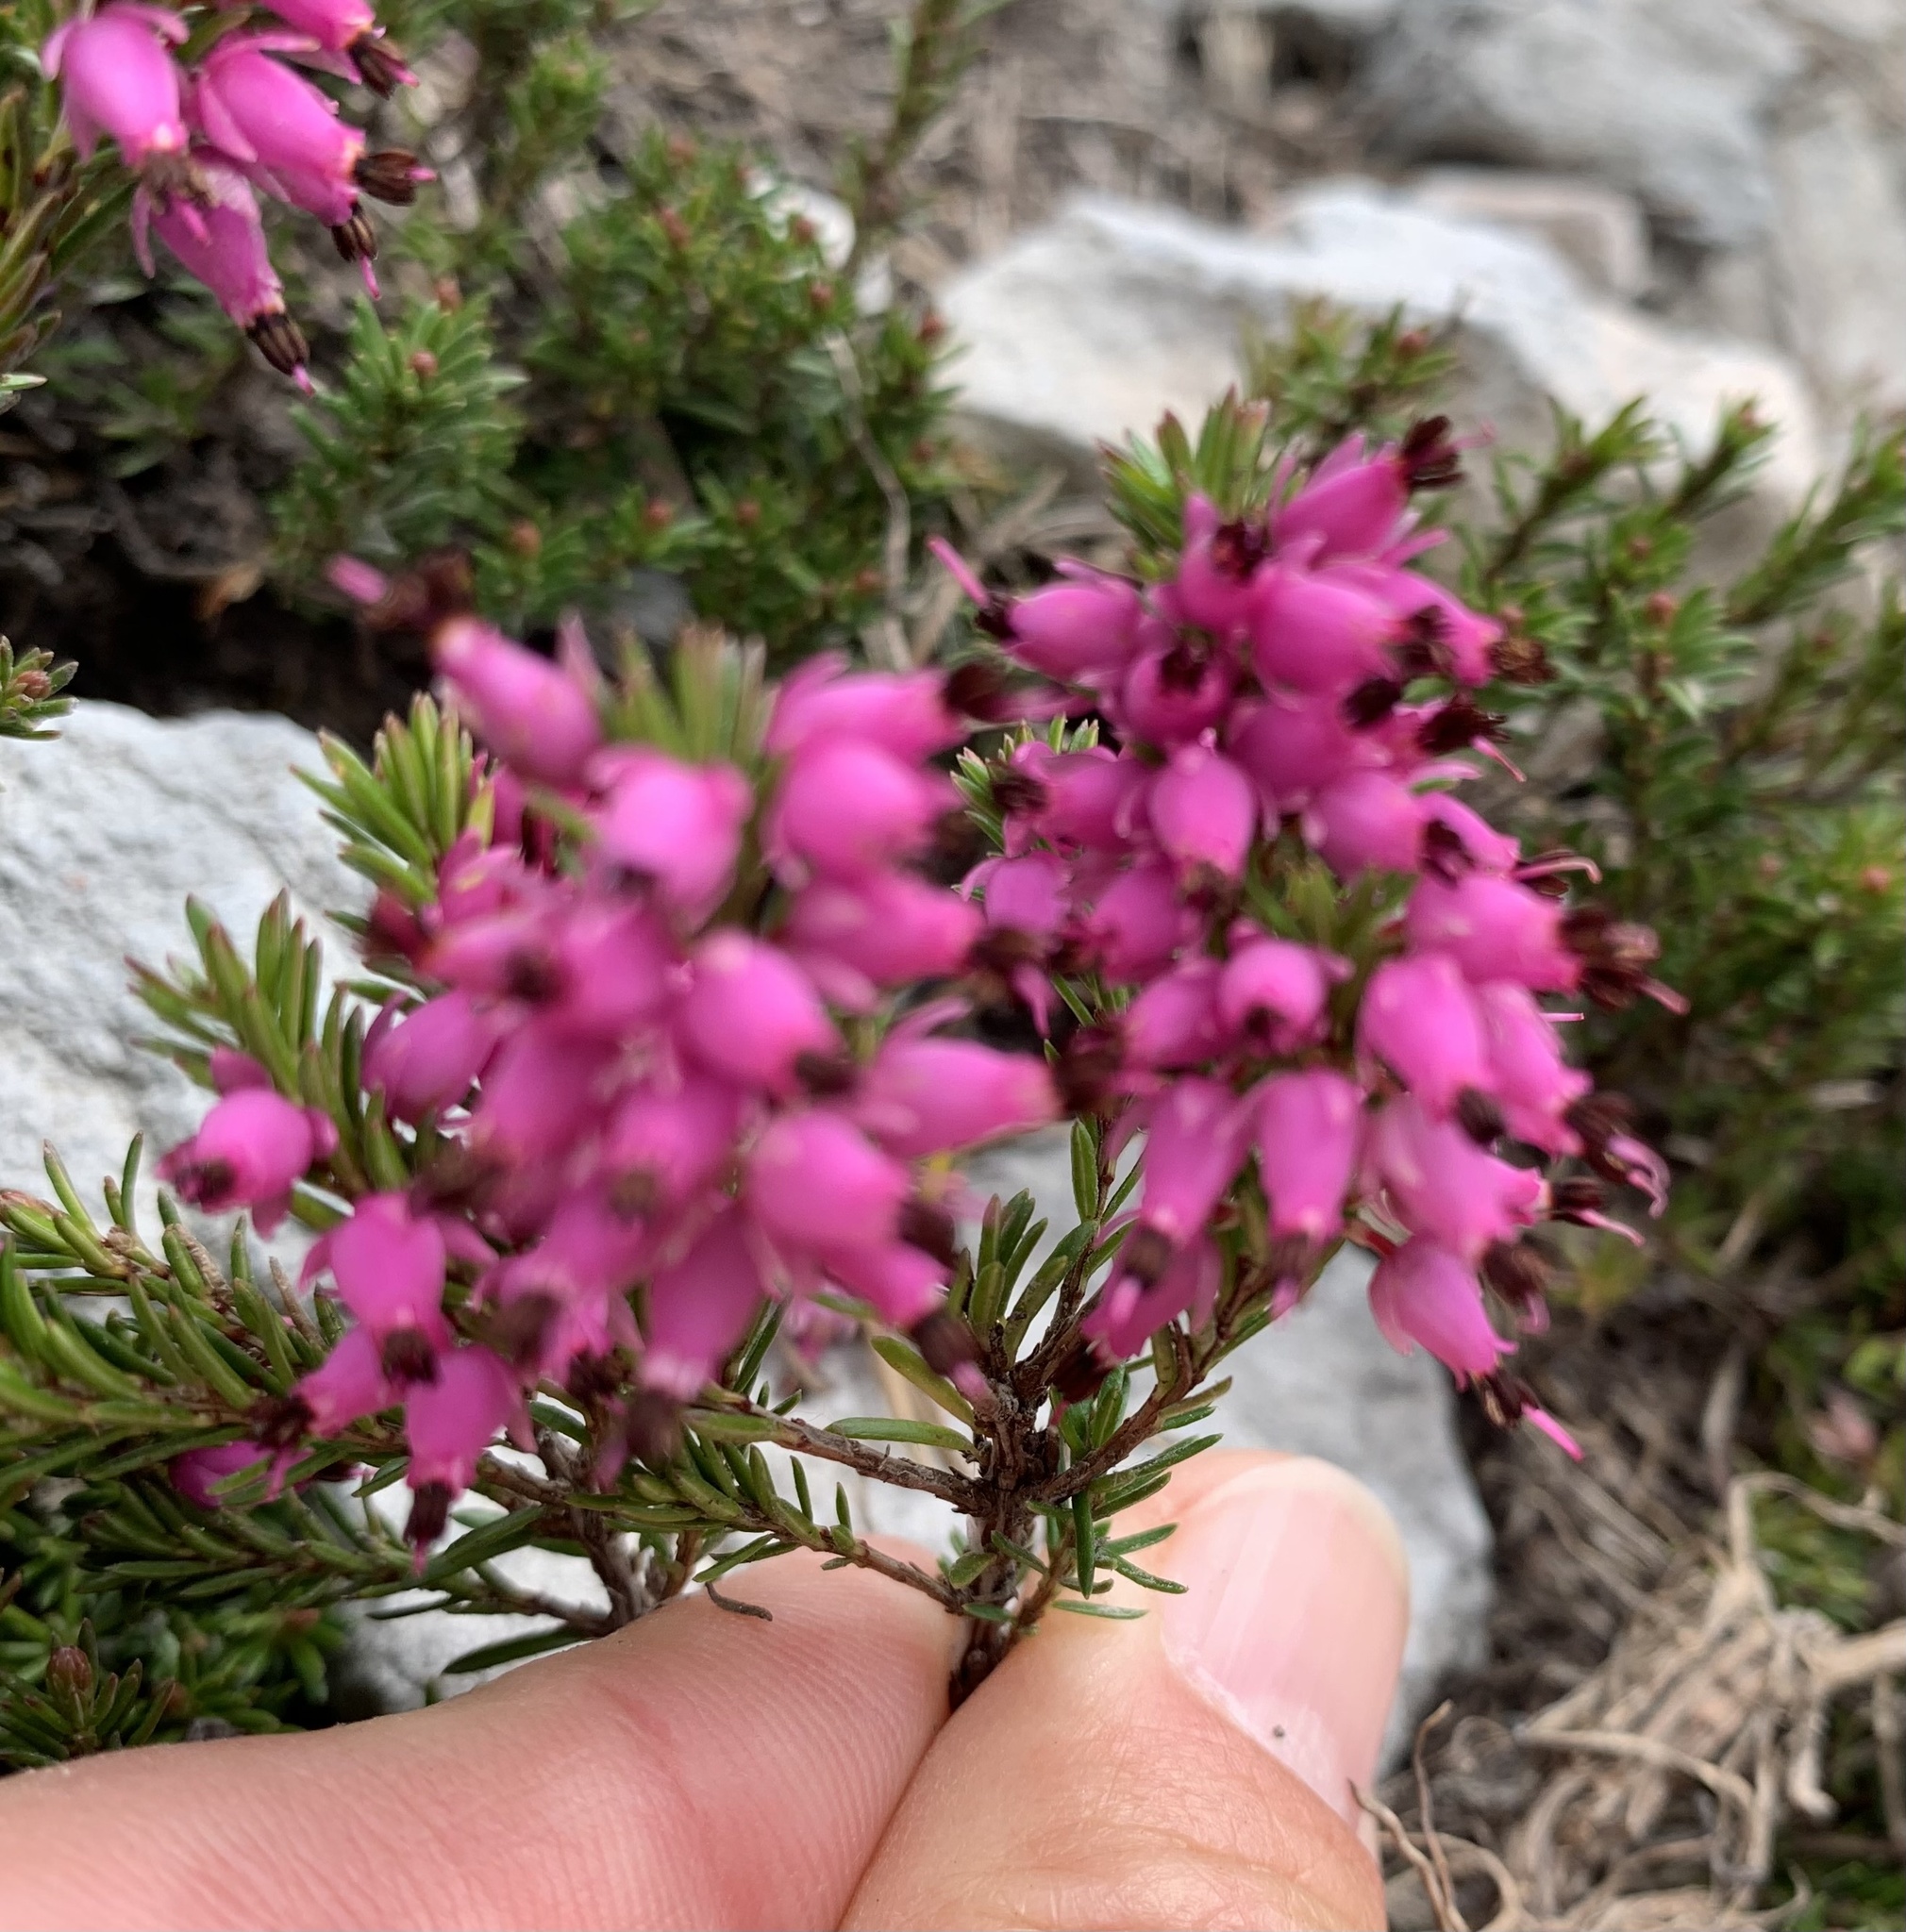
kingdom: Plantae
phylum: Tracheophyta
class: Magnoliopsida
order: Ericales
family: Ericaceae
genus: Erica
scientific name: Erica carnea
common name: Winter heath
